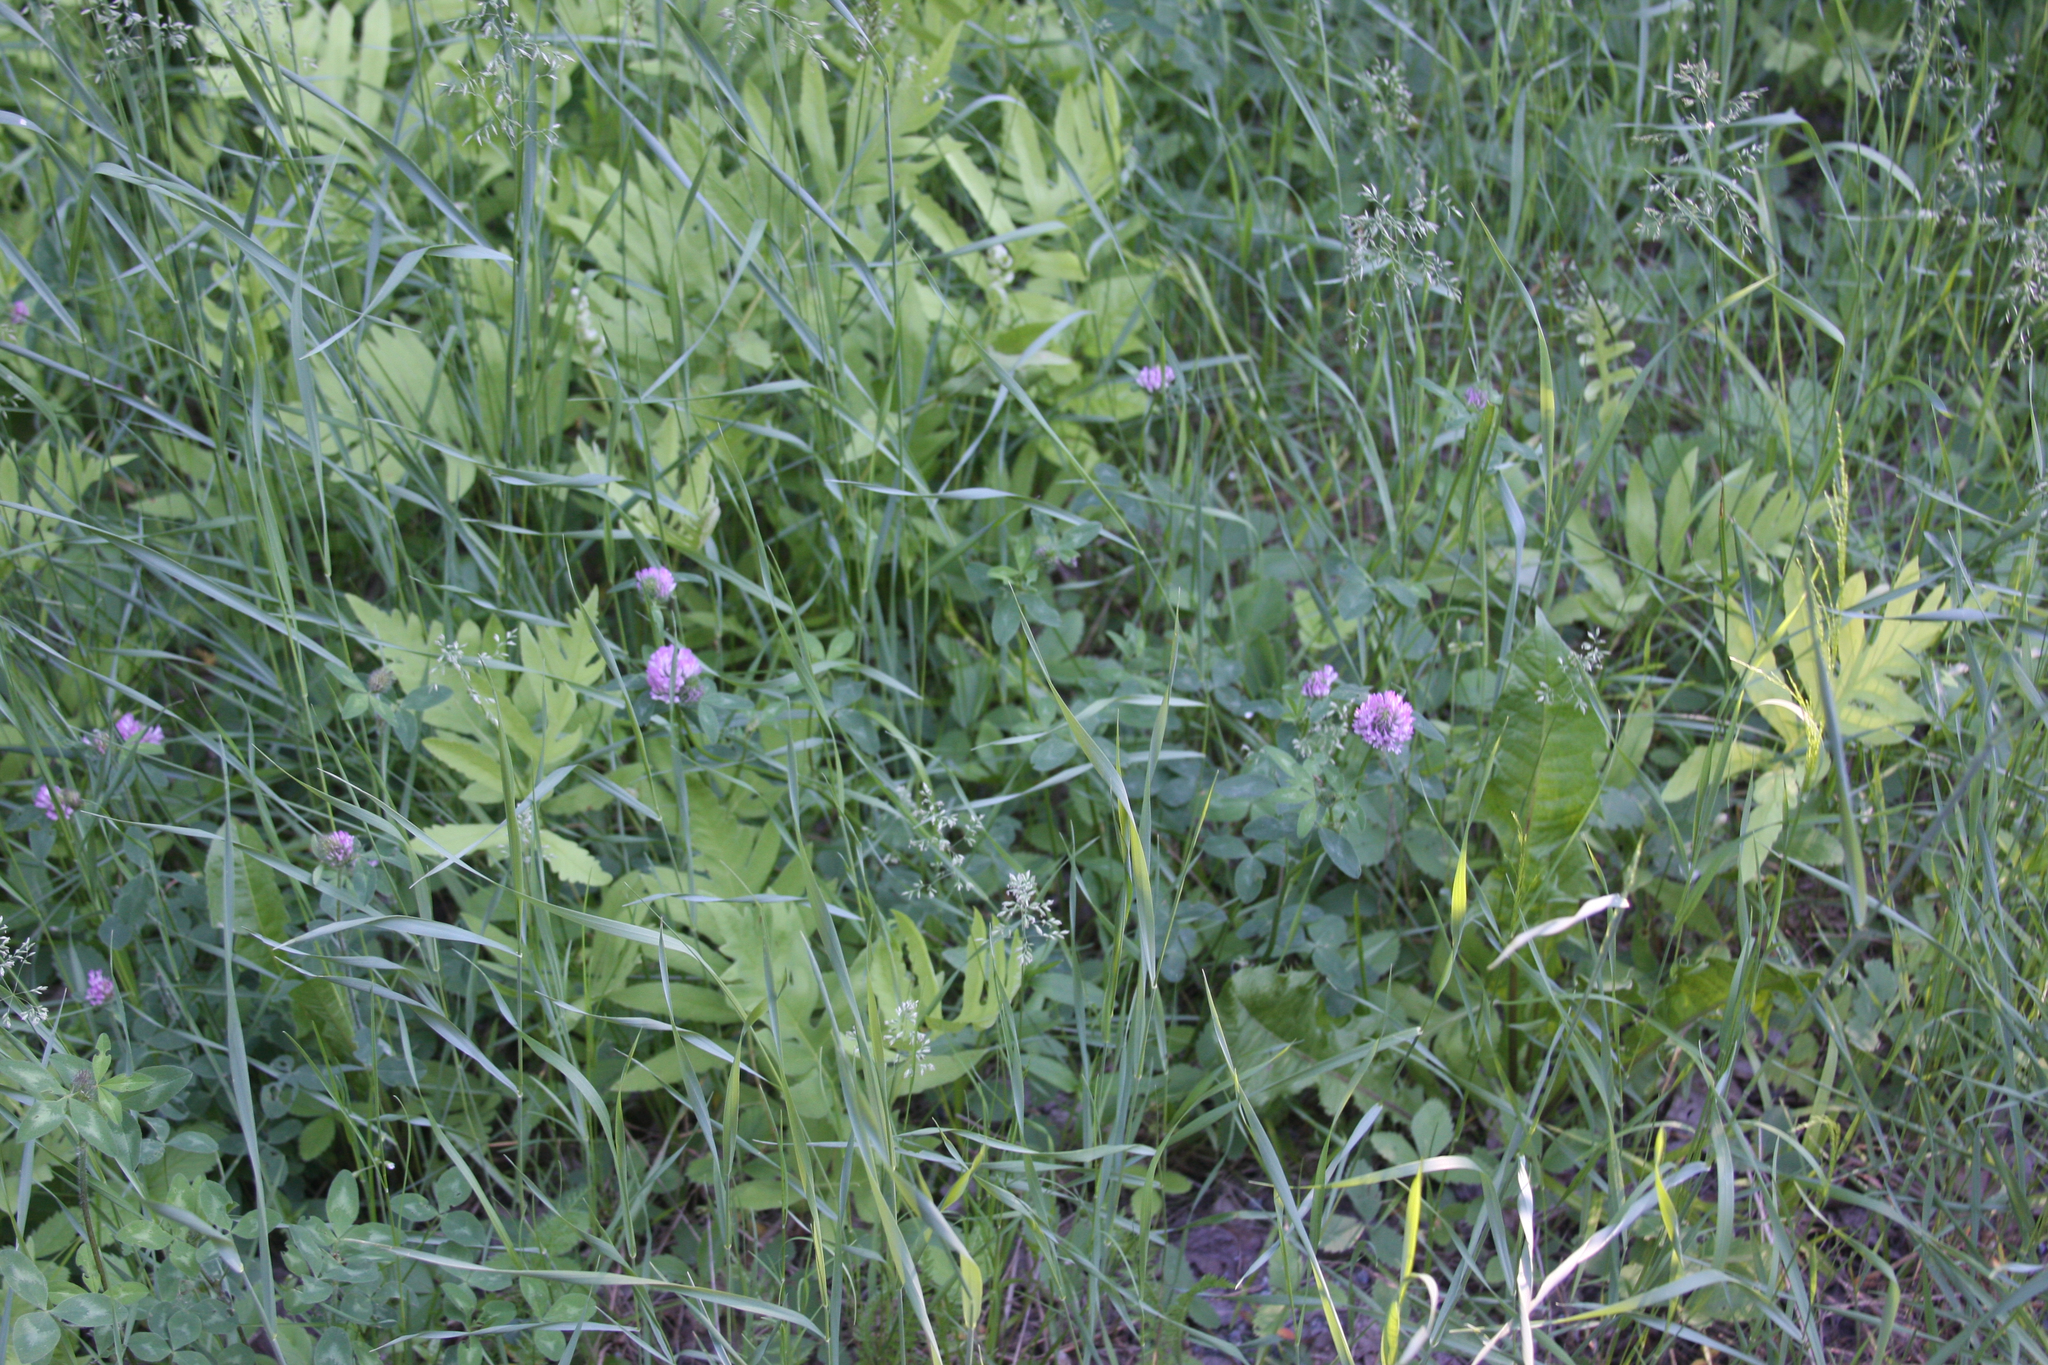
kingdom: Plantae
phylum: Tracheophyta
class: Magnoliopsida
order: Fabales
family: Fabaceae
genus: Trifolium
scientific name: Trifolium pratense
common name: Red clover
